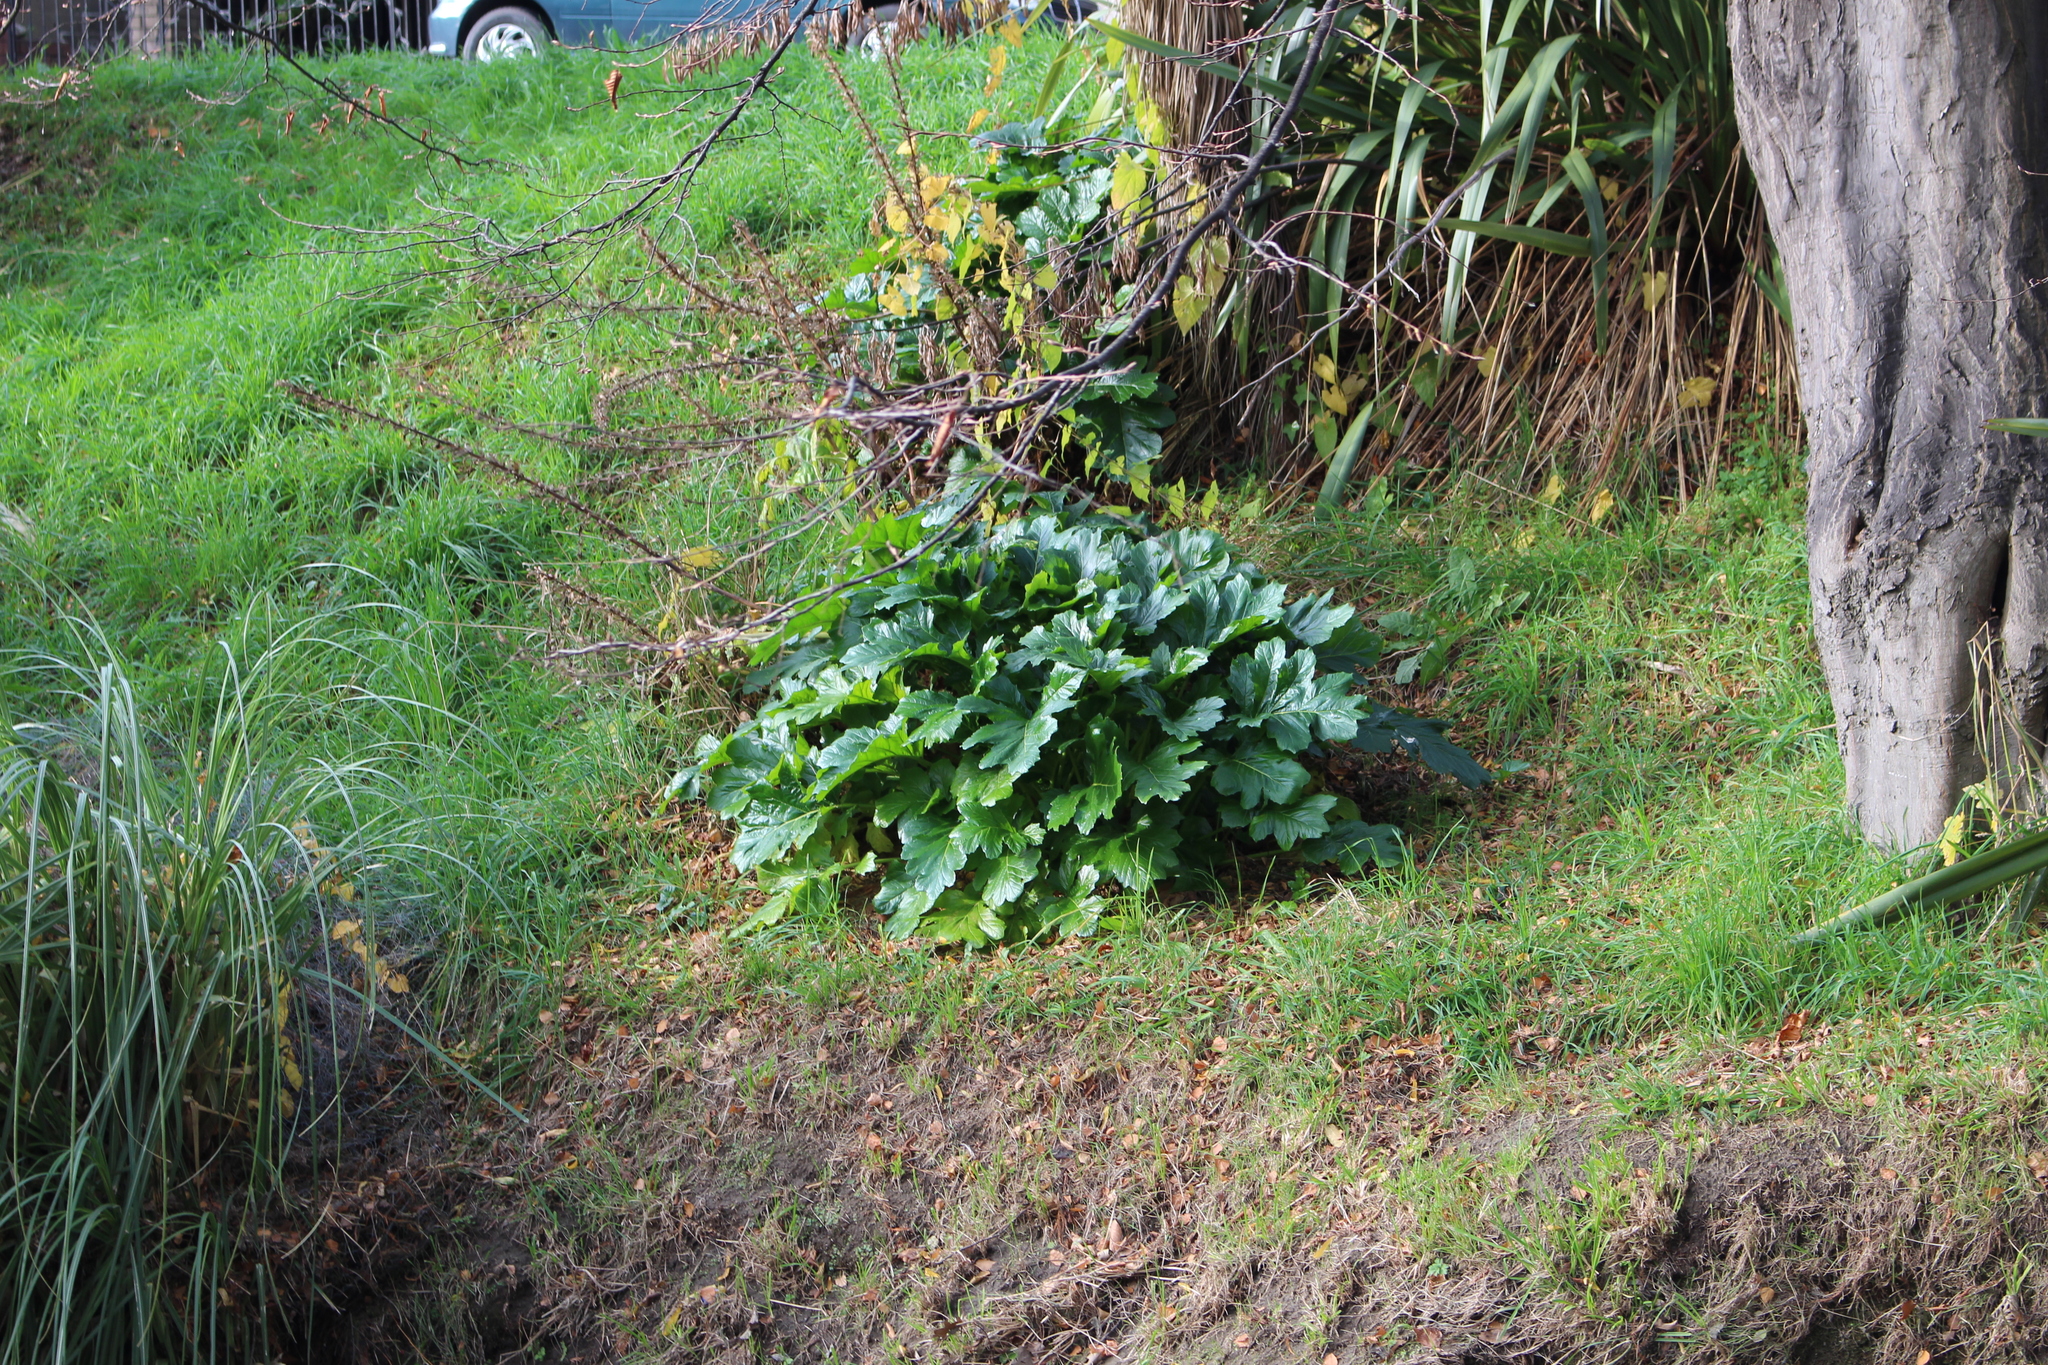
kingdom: Plantae
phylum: Tracheophyta
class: Magnoliopsida
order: Lamiales
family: Acanthaceae
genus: Acanthus
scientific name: Acanthus mollis
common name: Bear's-breech
